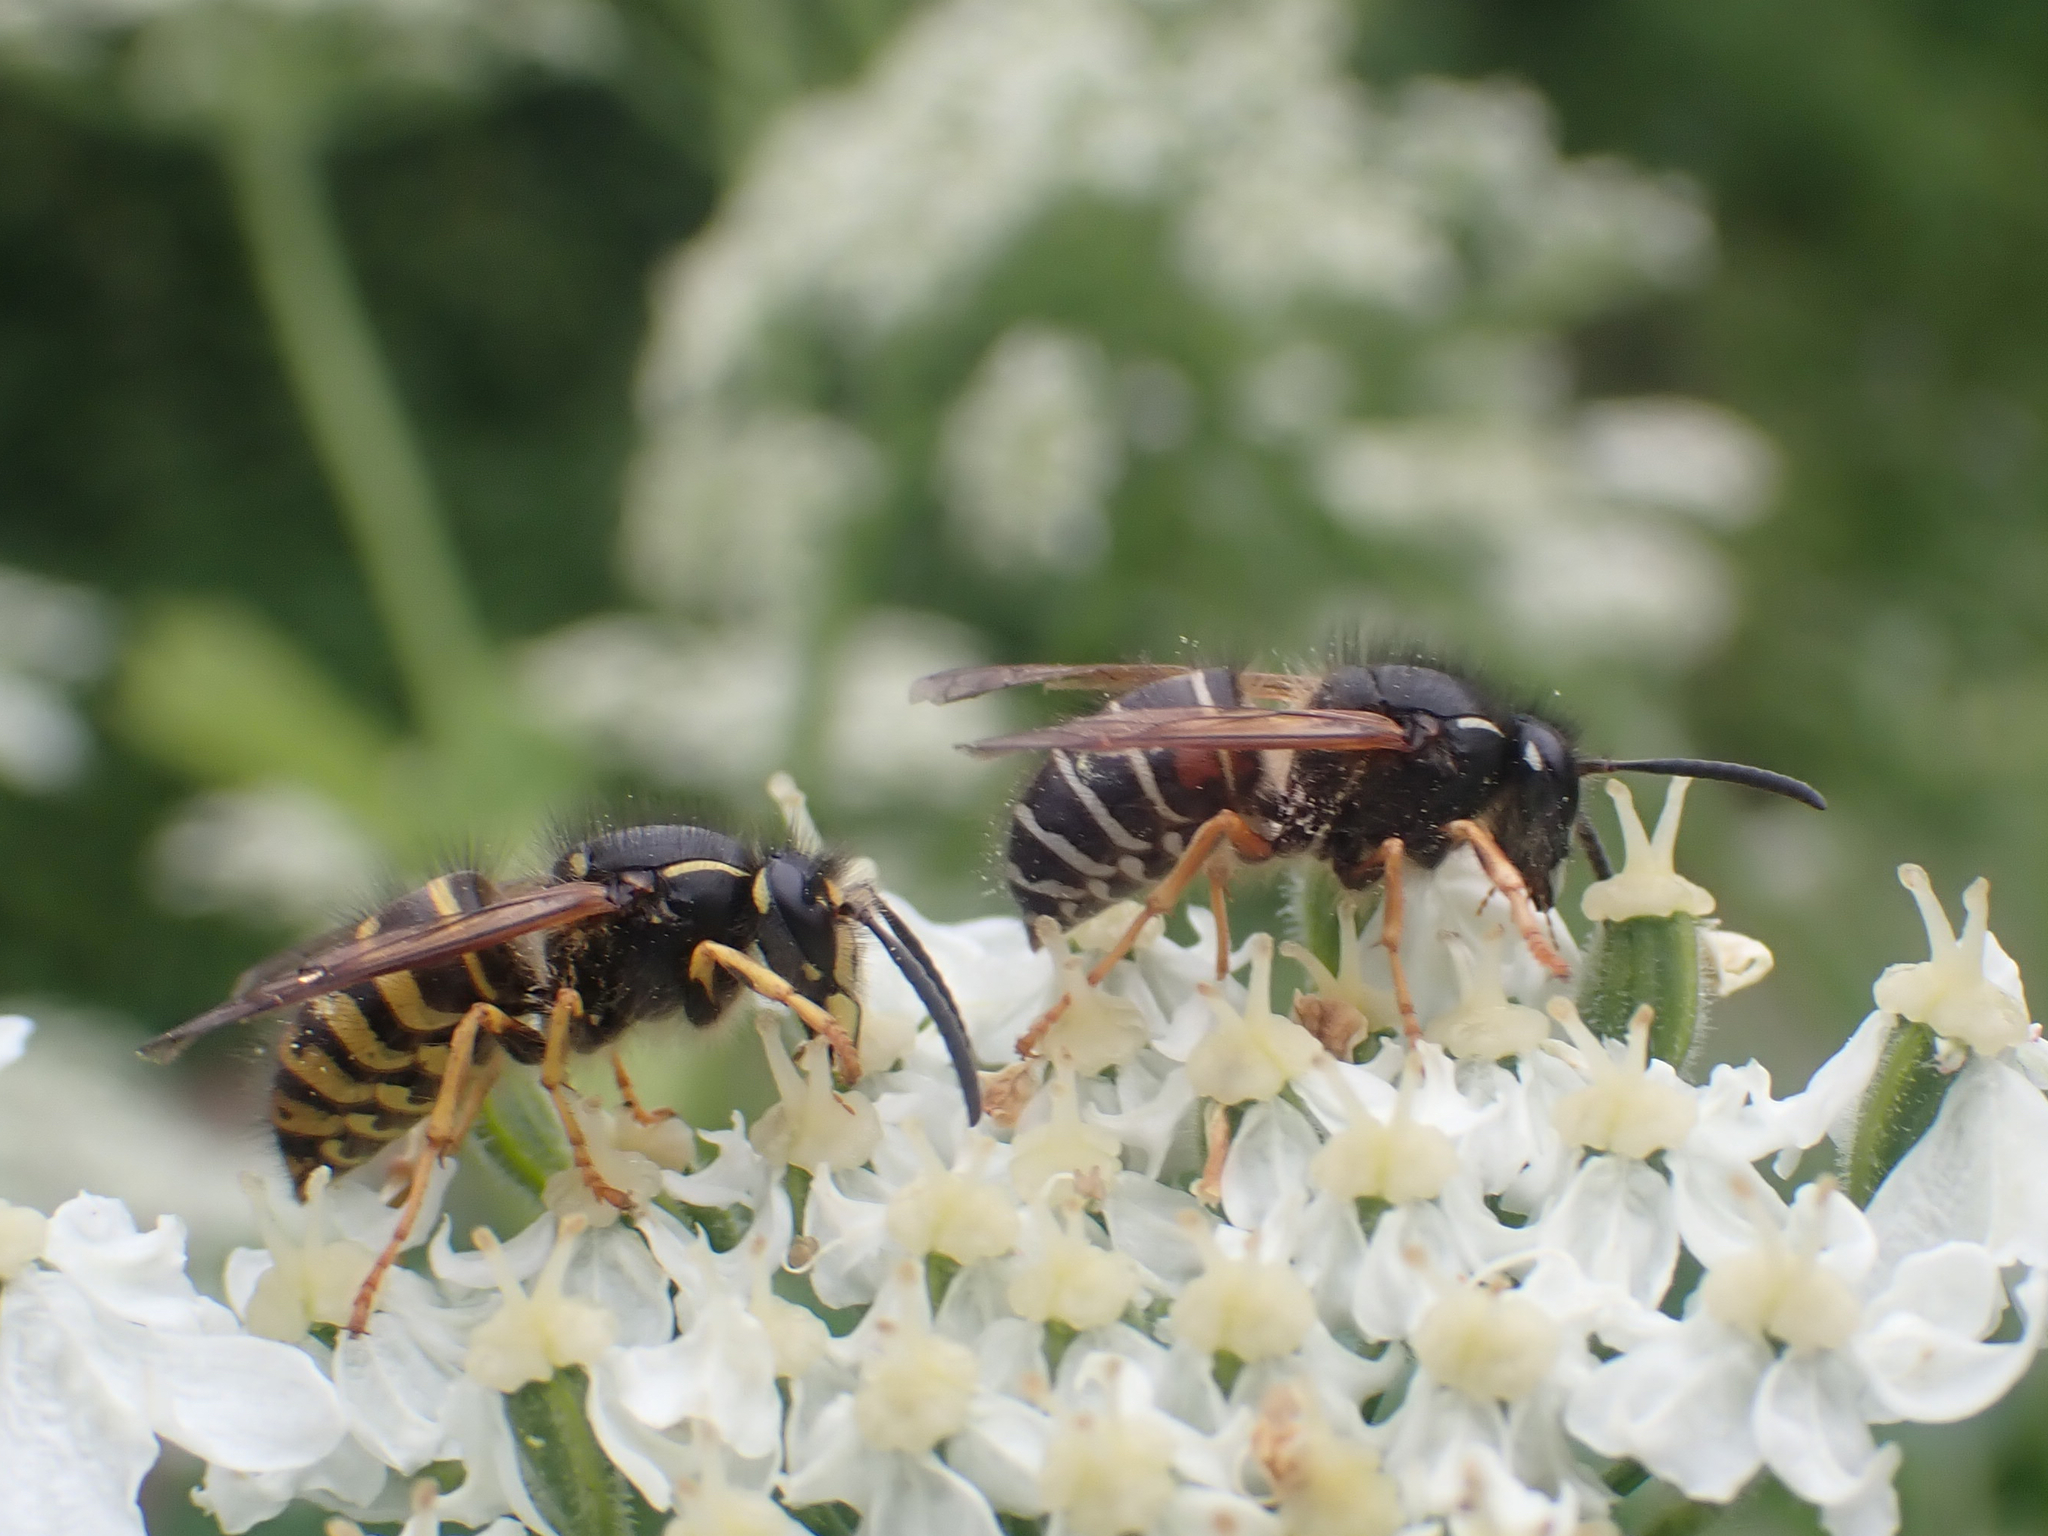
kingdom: Animalia
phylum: Arthropoda
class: Insecta
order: Hymenoptera
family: Vespidae
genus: Dolichovespula
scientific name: Dolichovespula alpicola
